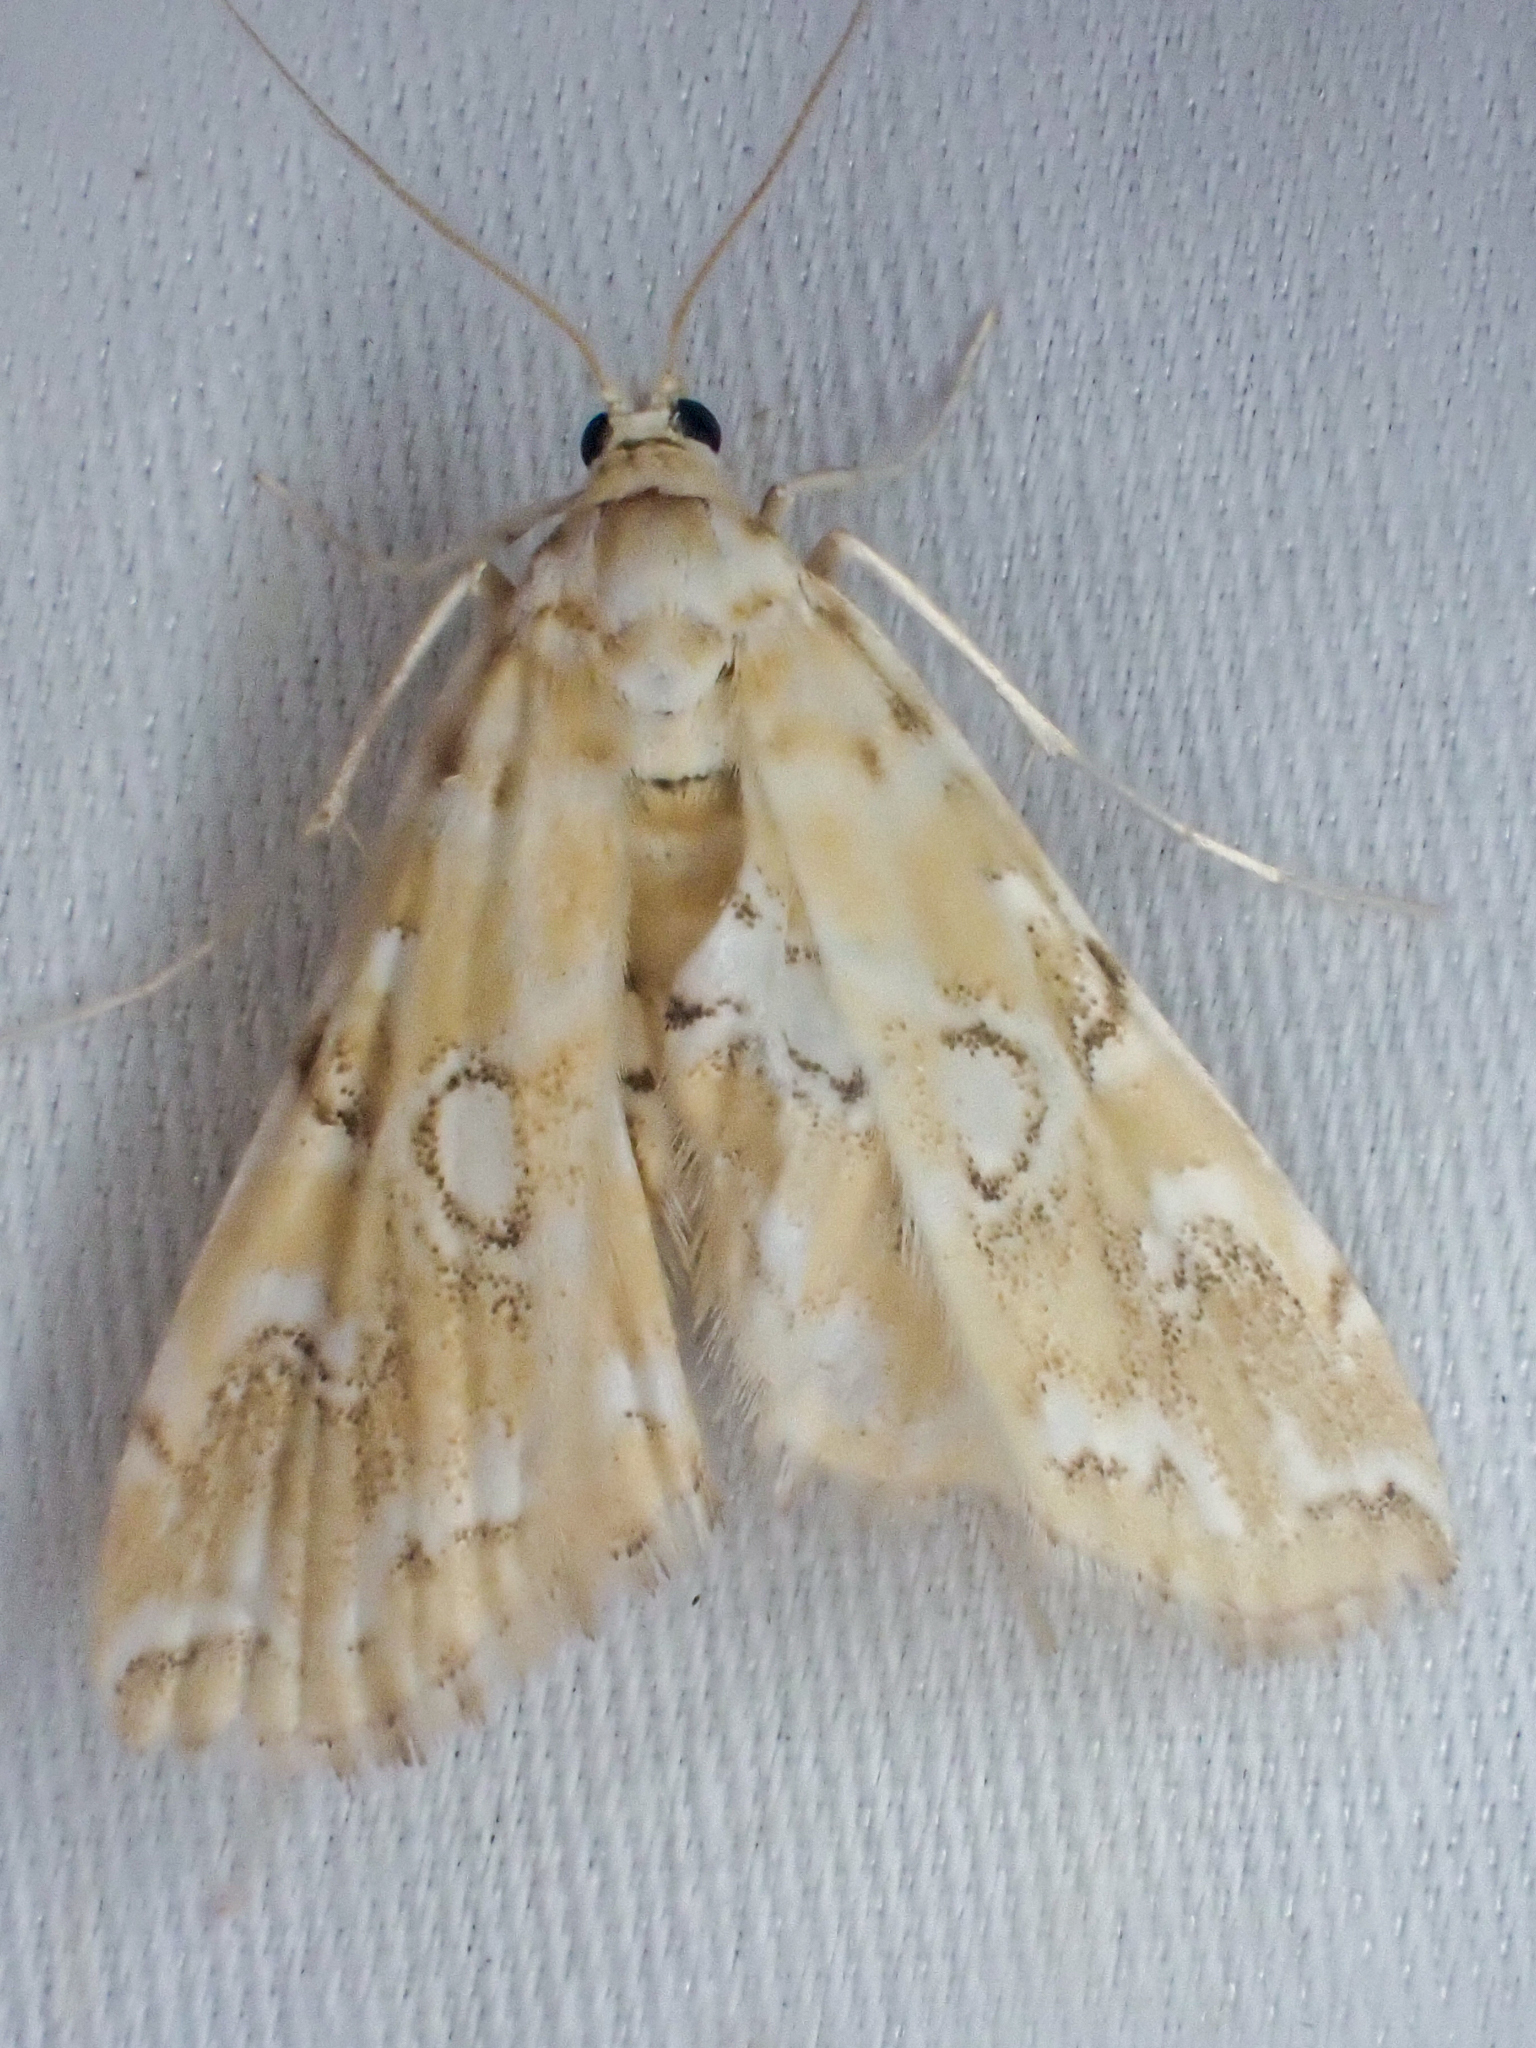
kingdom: Animalia
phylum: Arthropoda
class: Insecta
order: Lepidoptera
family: Crambidae
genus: Elophila
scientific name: Elophila icciusalis
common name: Pondside pyralid moth
